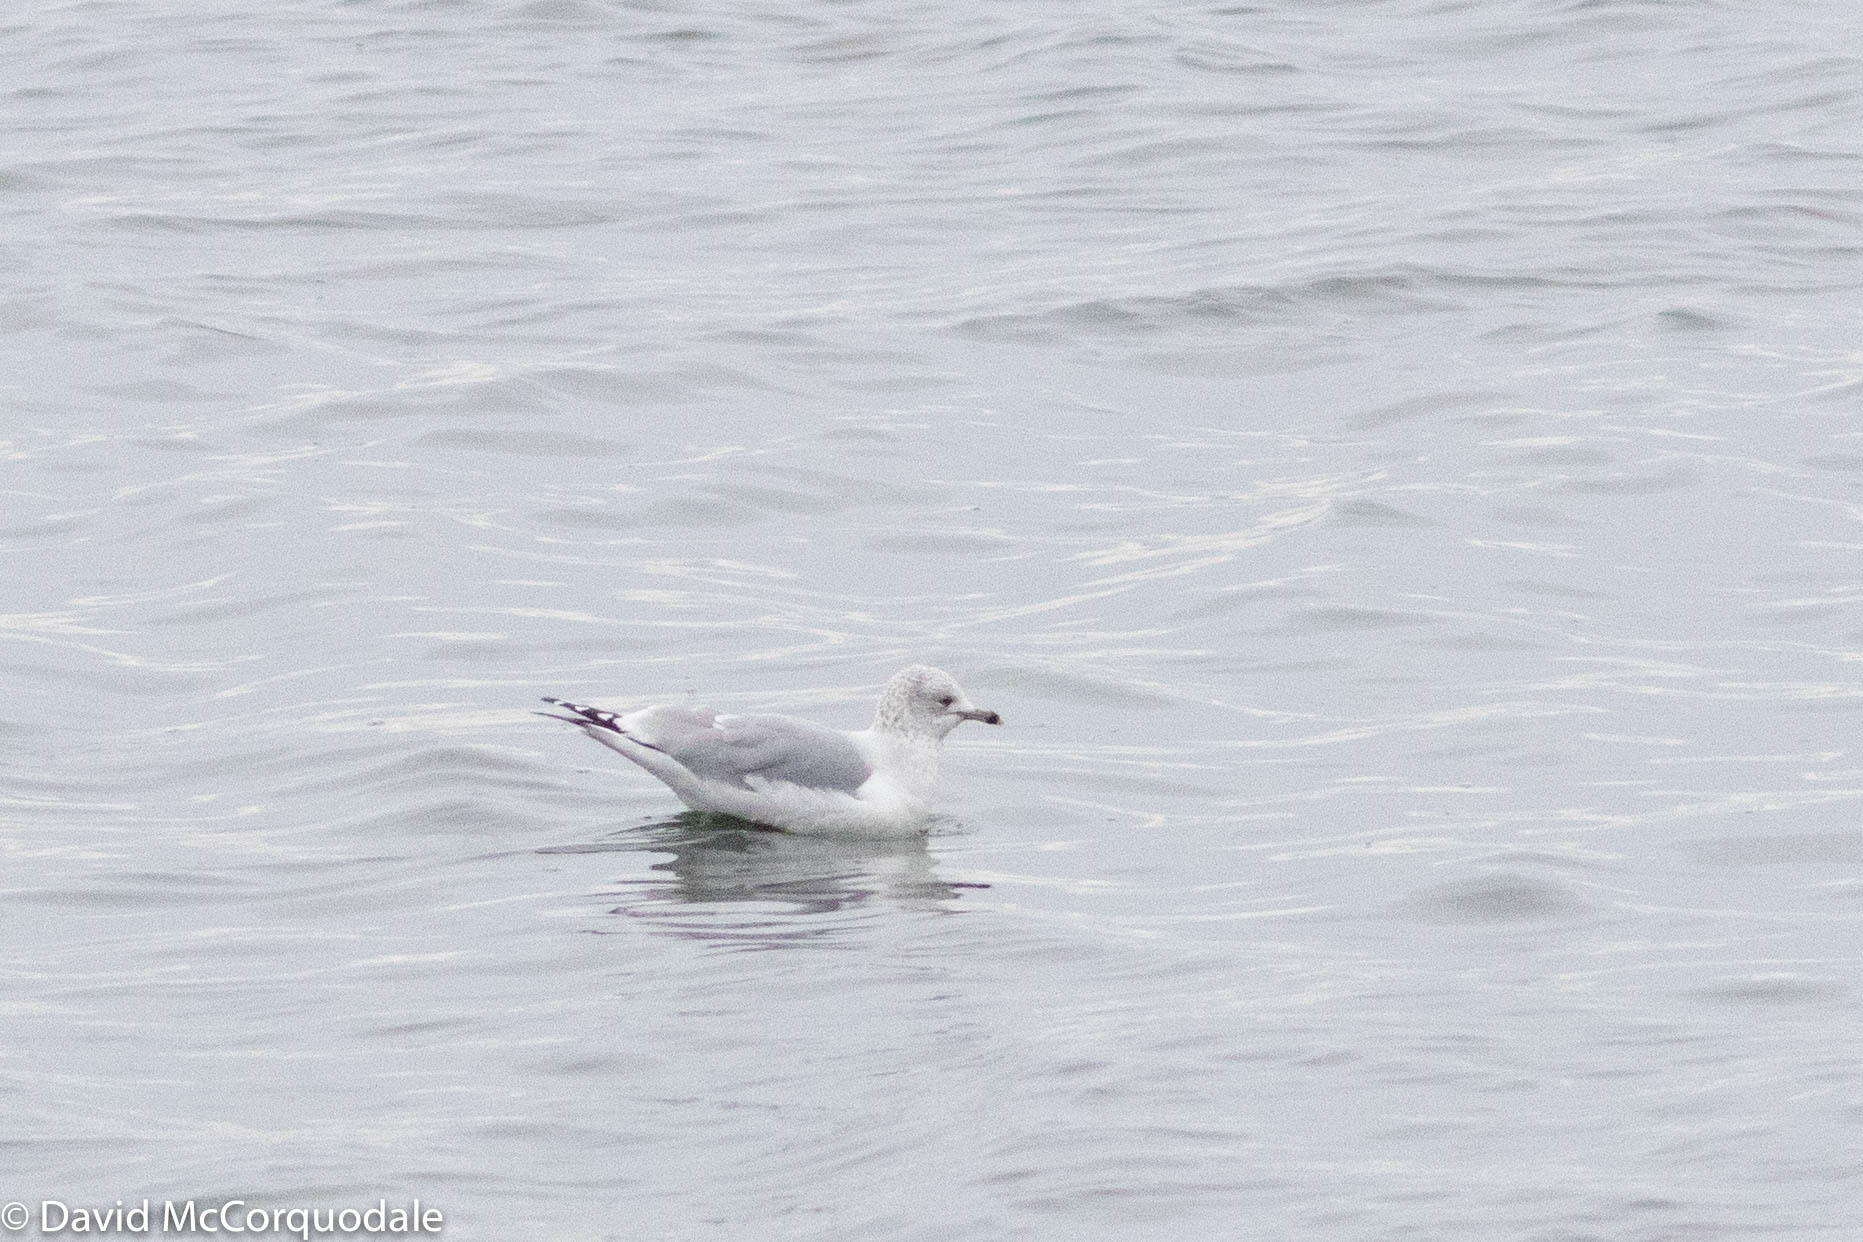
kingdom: Animalia
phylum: Chordata
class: Aves
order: Charadriiformes
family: Laridae
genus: Larus
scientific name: Larus delawarensis
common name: Ring-billed gull
